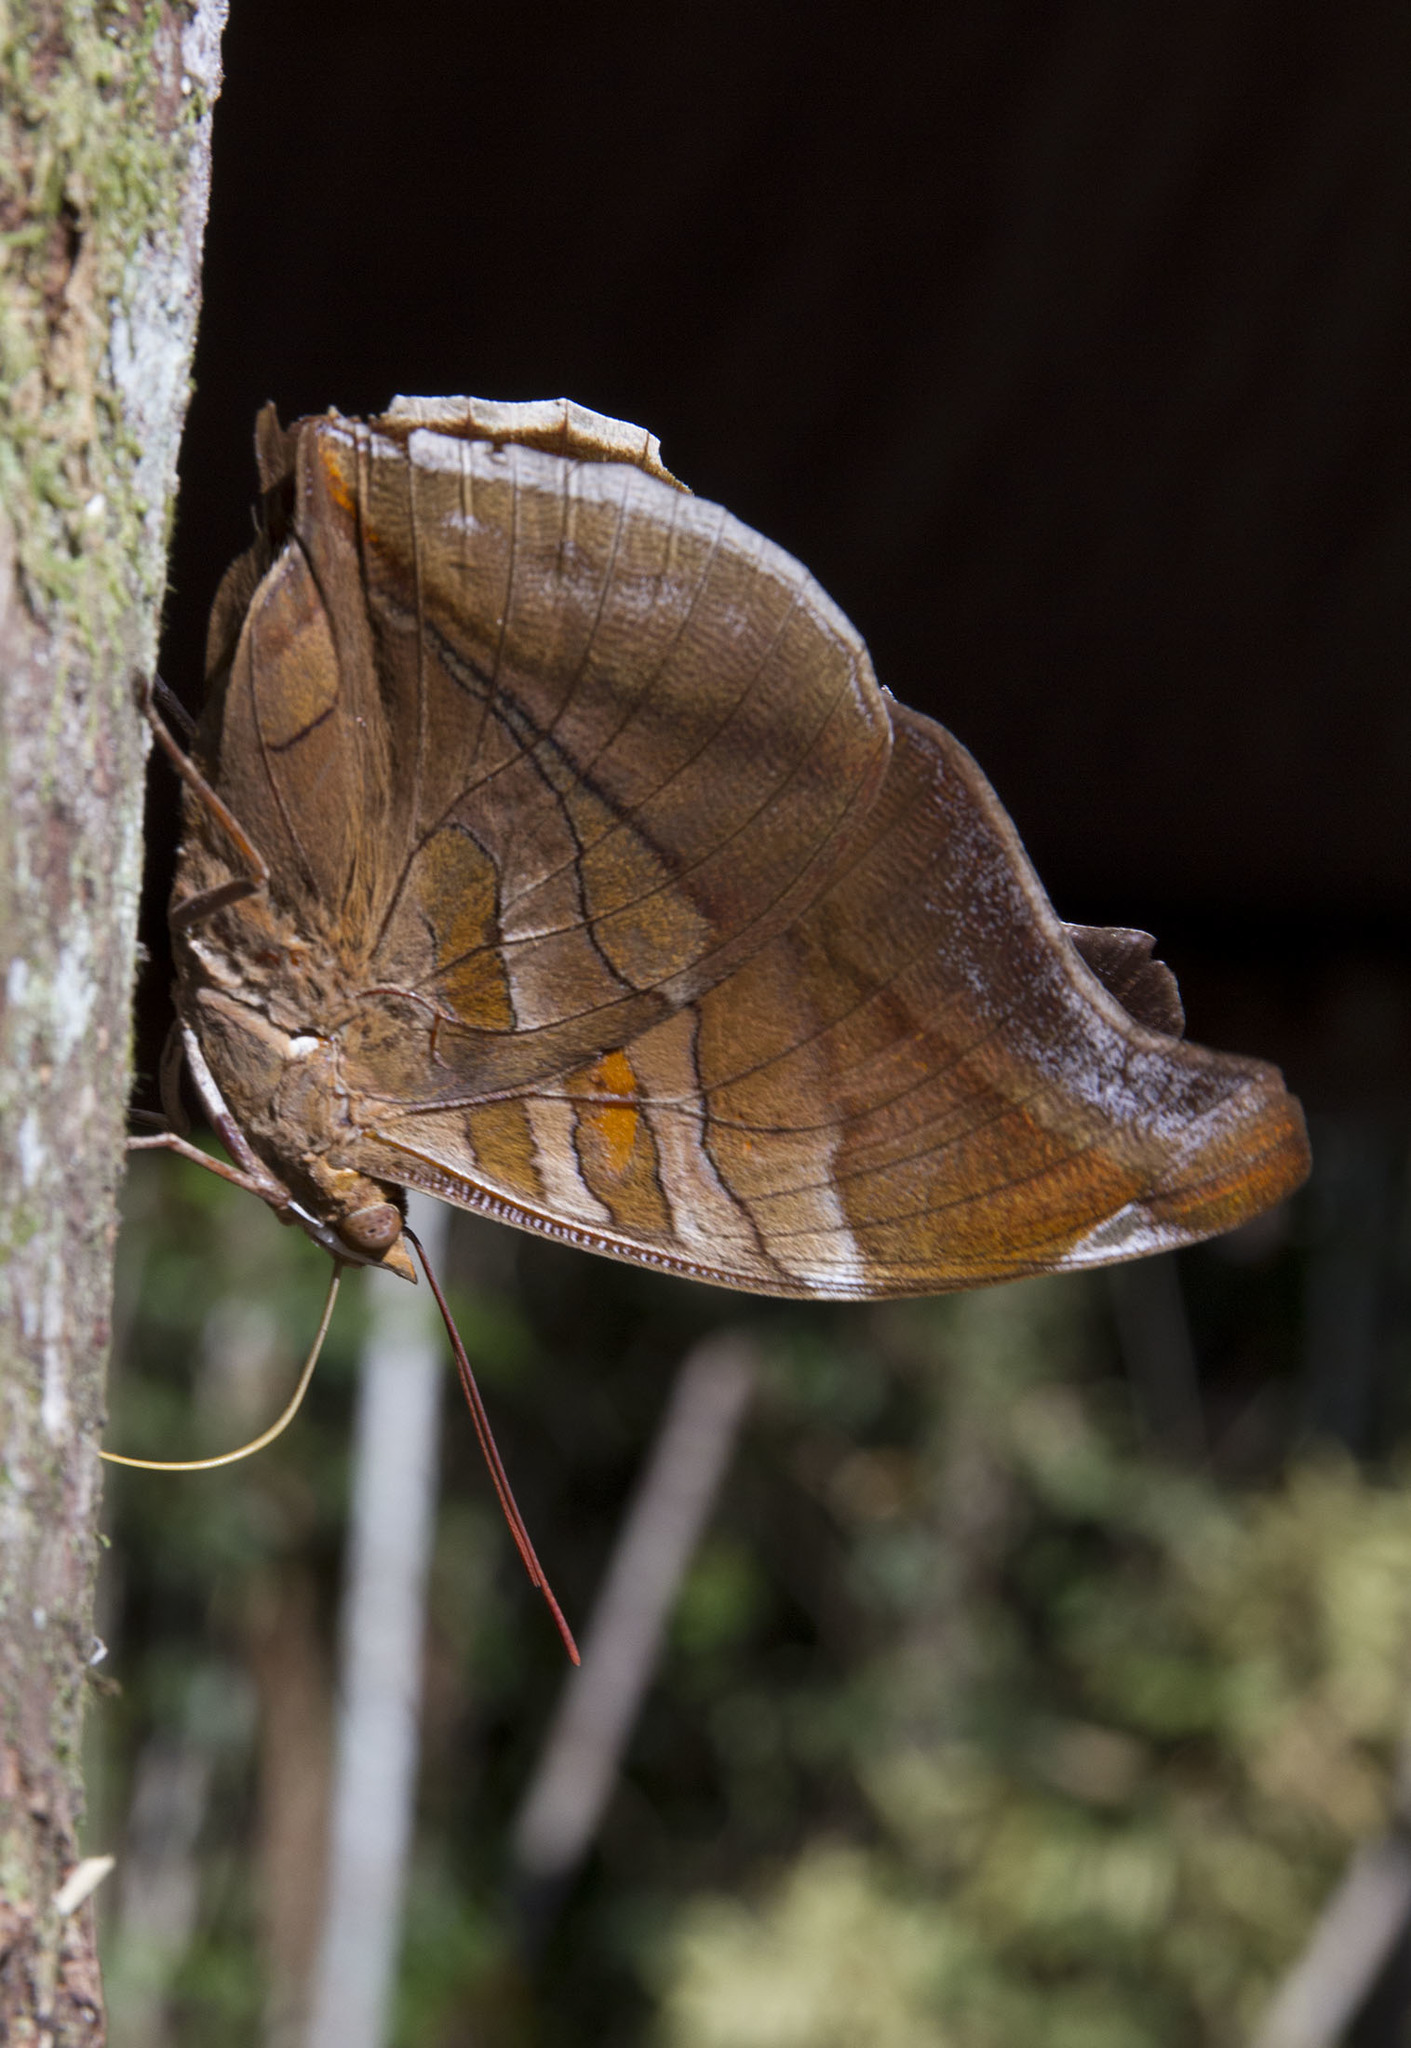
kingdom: Animalia
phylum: Arthropoda
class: Insecta
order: Lepidoptera
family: Nymphalidae
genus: Historis
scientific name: Historis odius
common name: Orion cecropian
